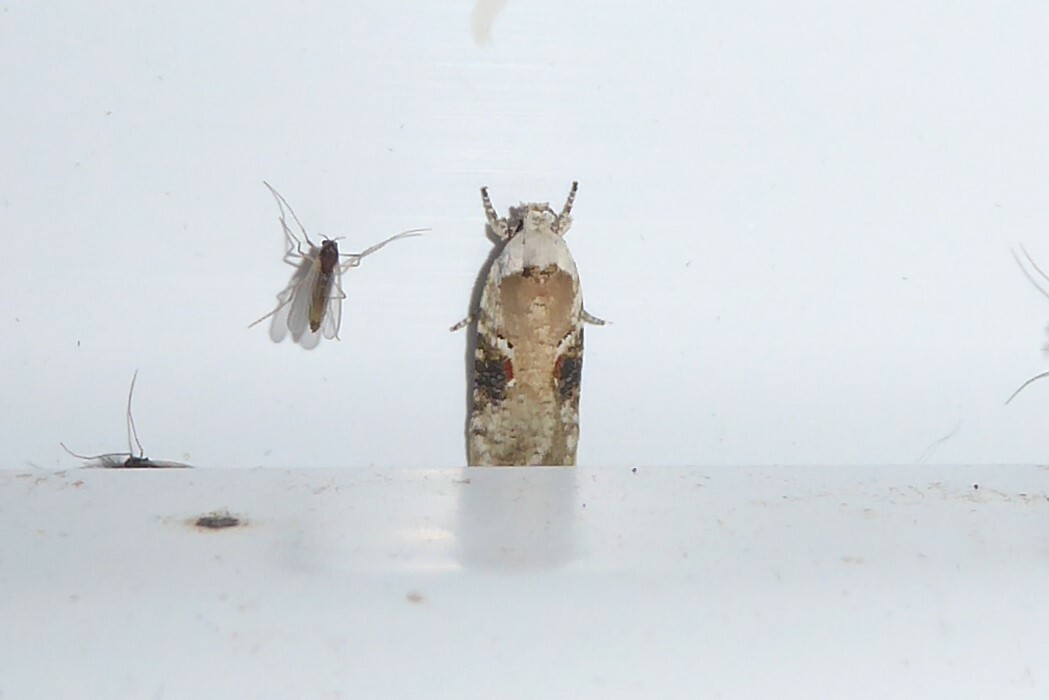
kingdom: Animalia
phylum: Arthropoda
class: Insecta
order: Lepidoptera
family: Depressariidae
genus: Agonopterix
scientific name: Agonopterix alstroemeriana
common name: Moth
